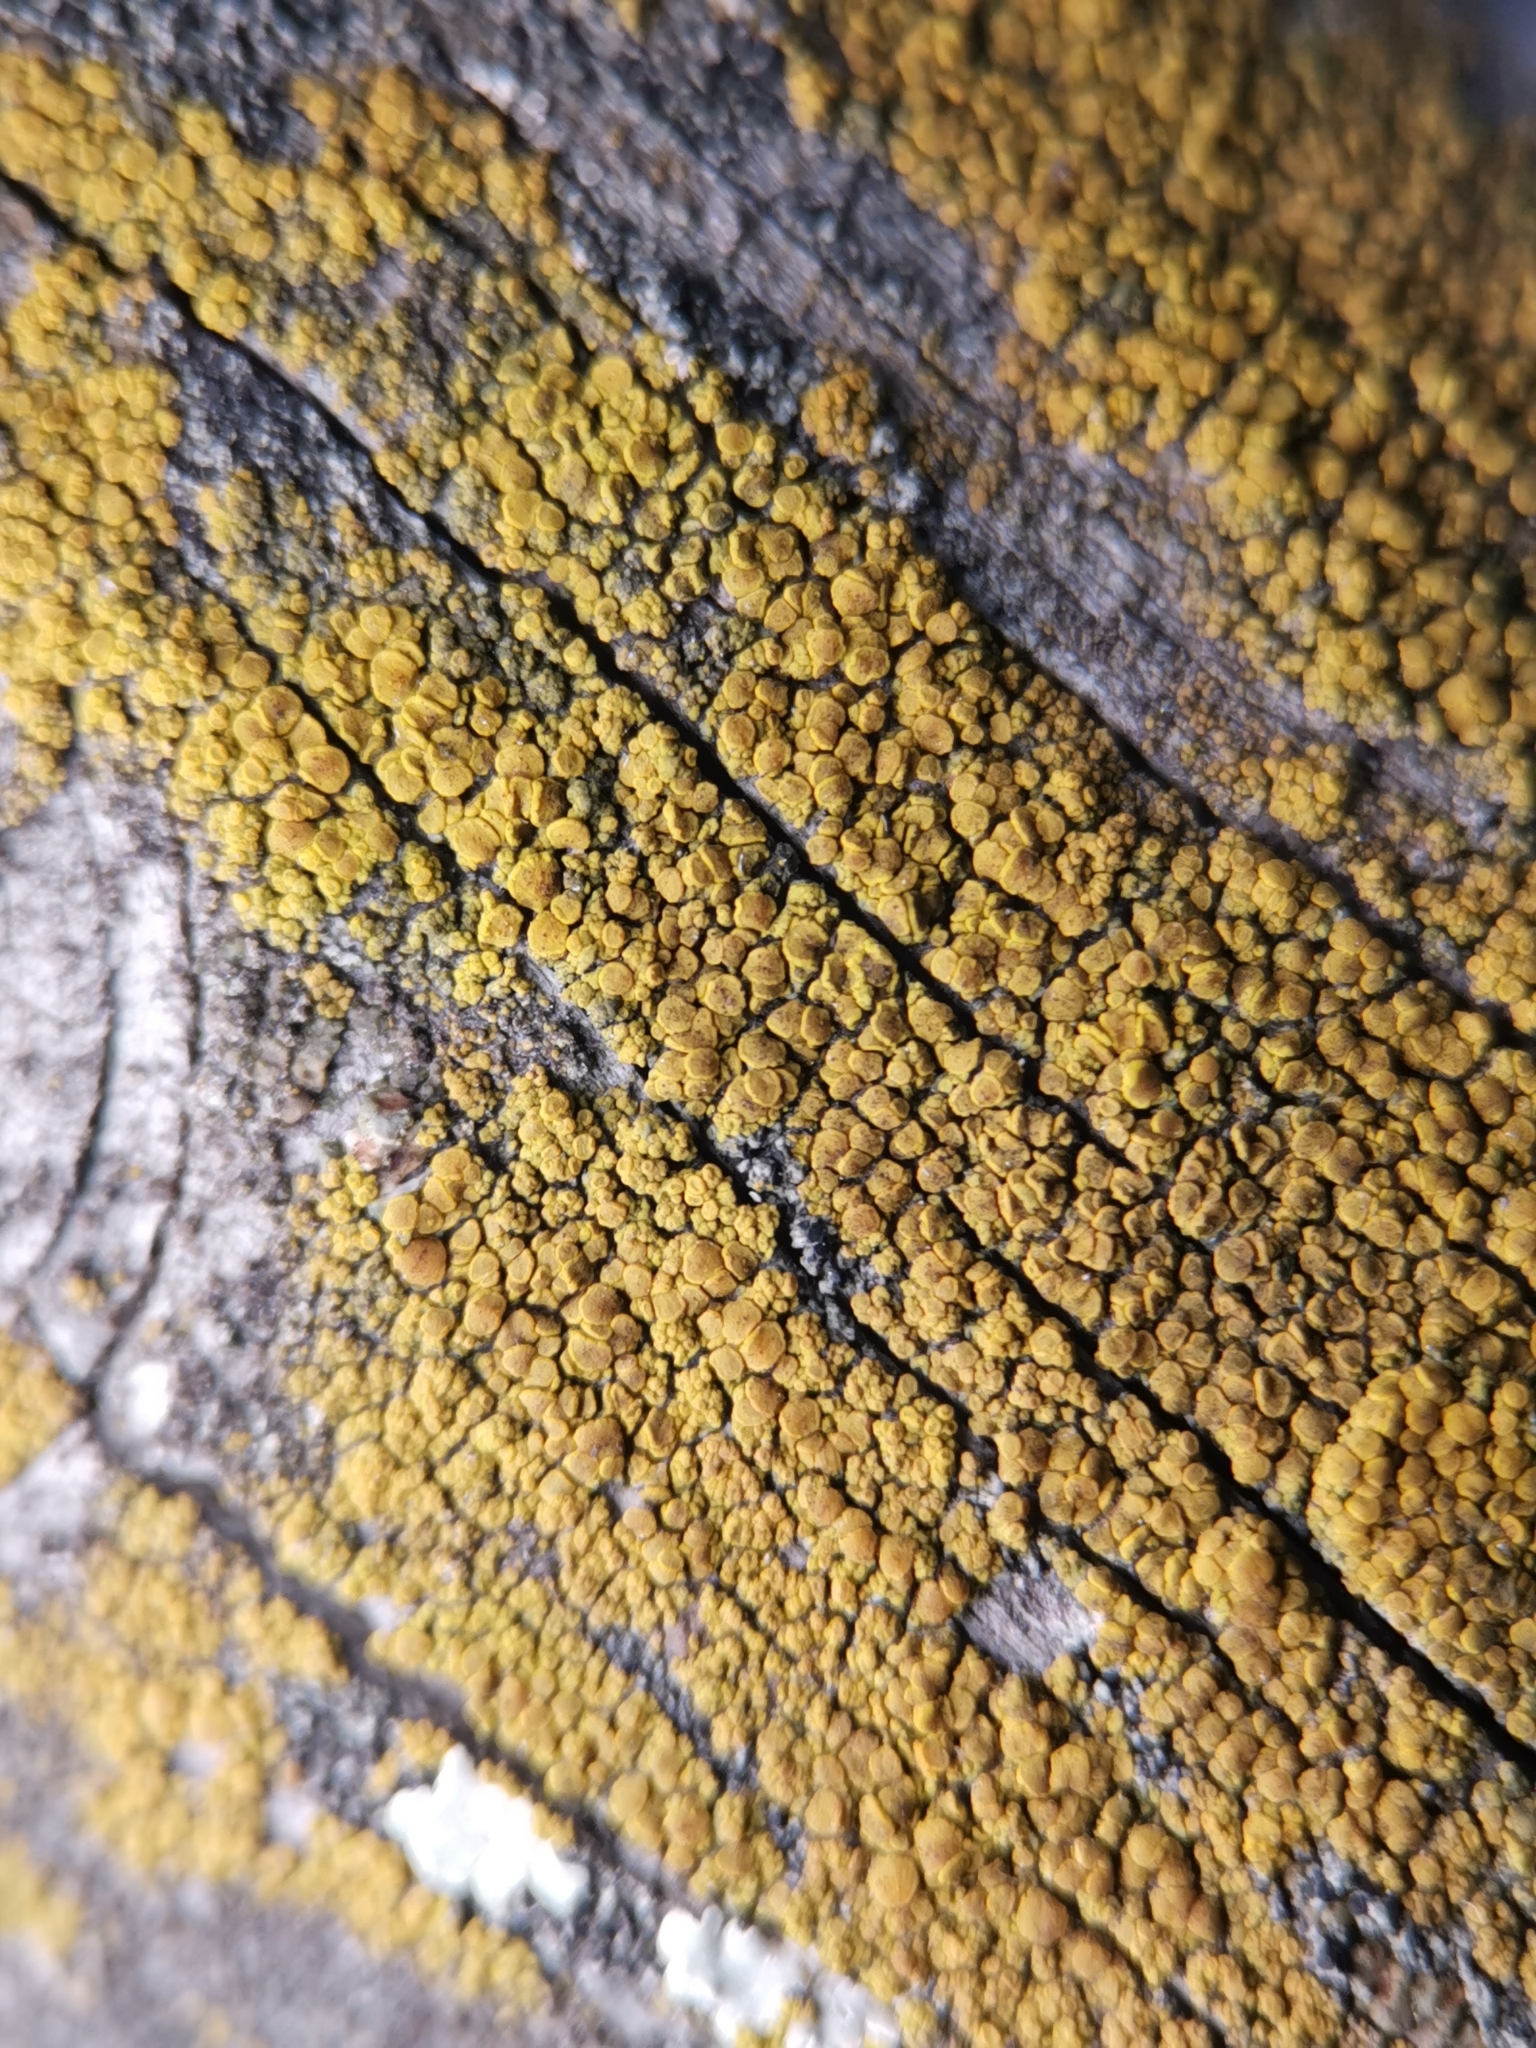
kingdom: Fungi
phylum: Ascomycota
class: Candelariomycetes
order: Candelariales
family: Candelariaceae
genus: Candelariella
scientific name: Candelariella vitellina
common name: Common goldspeck
